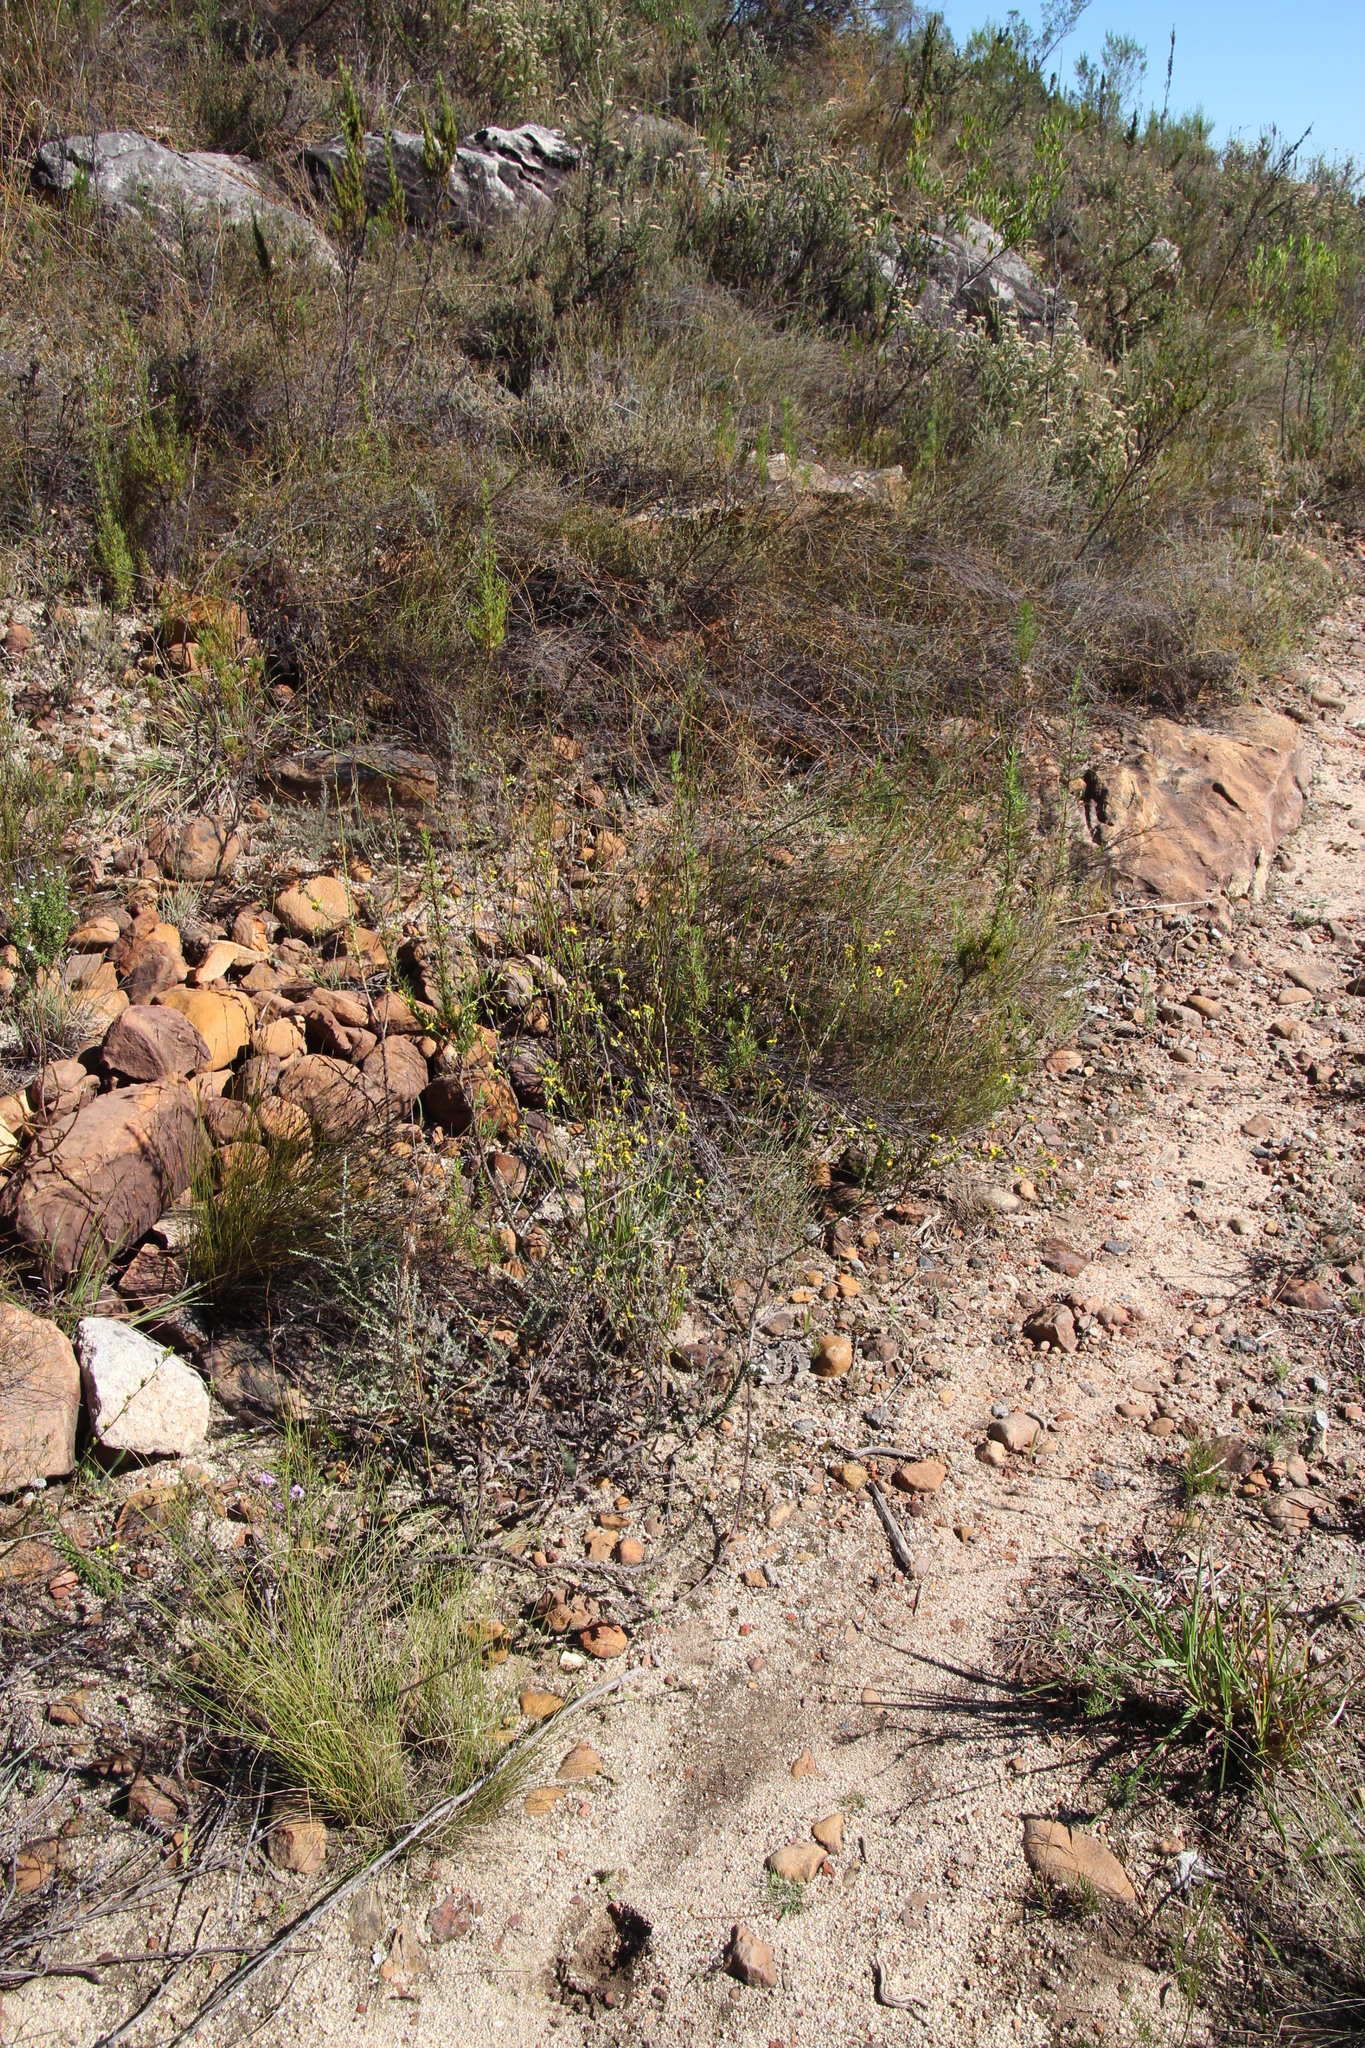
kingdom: Plantae
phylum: Tracheophyta
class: Magnoliopsida
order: Asterales
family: Asteraceae
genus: Senecio
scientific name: Senecio pubigerus
